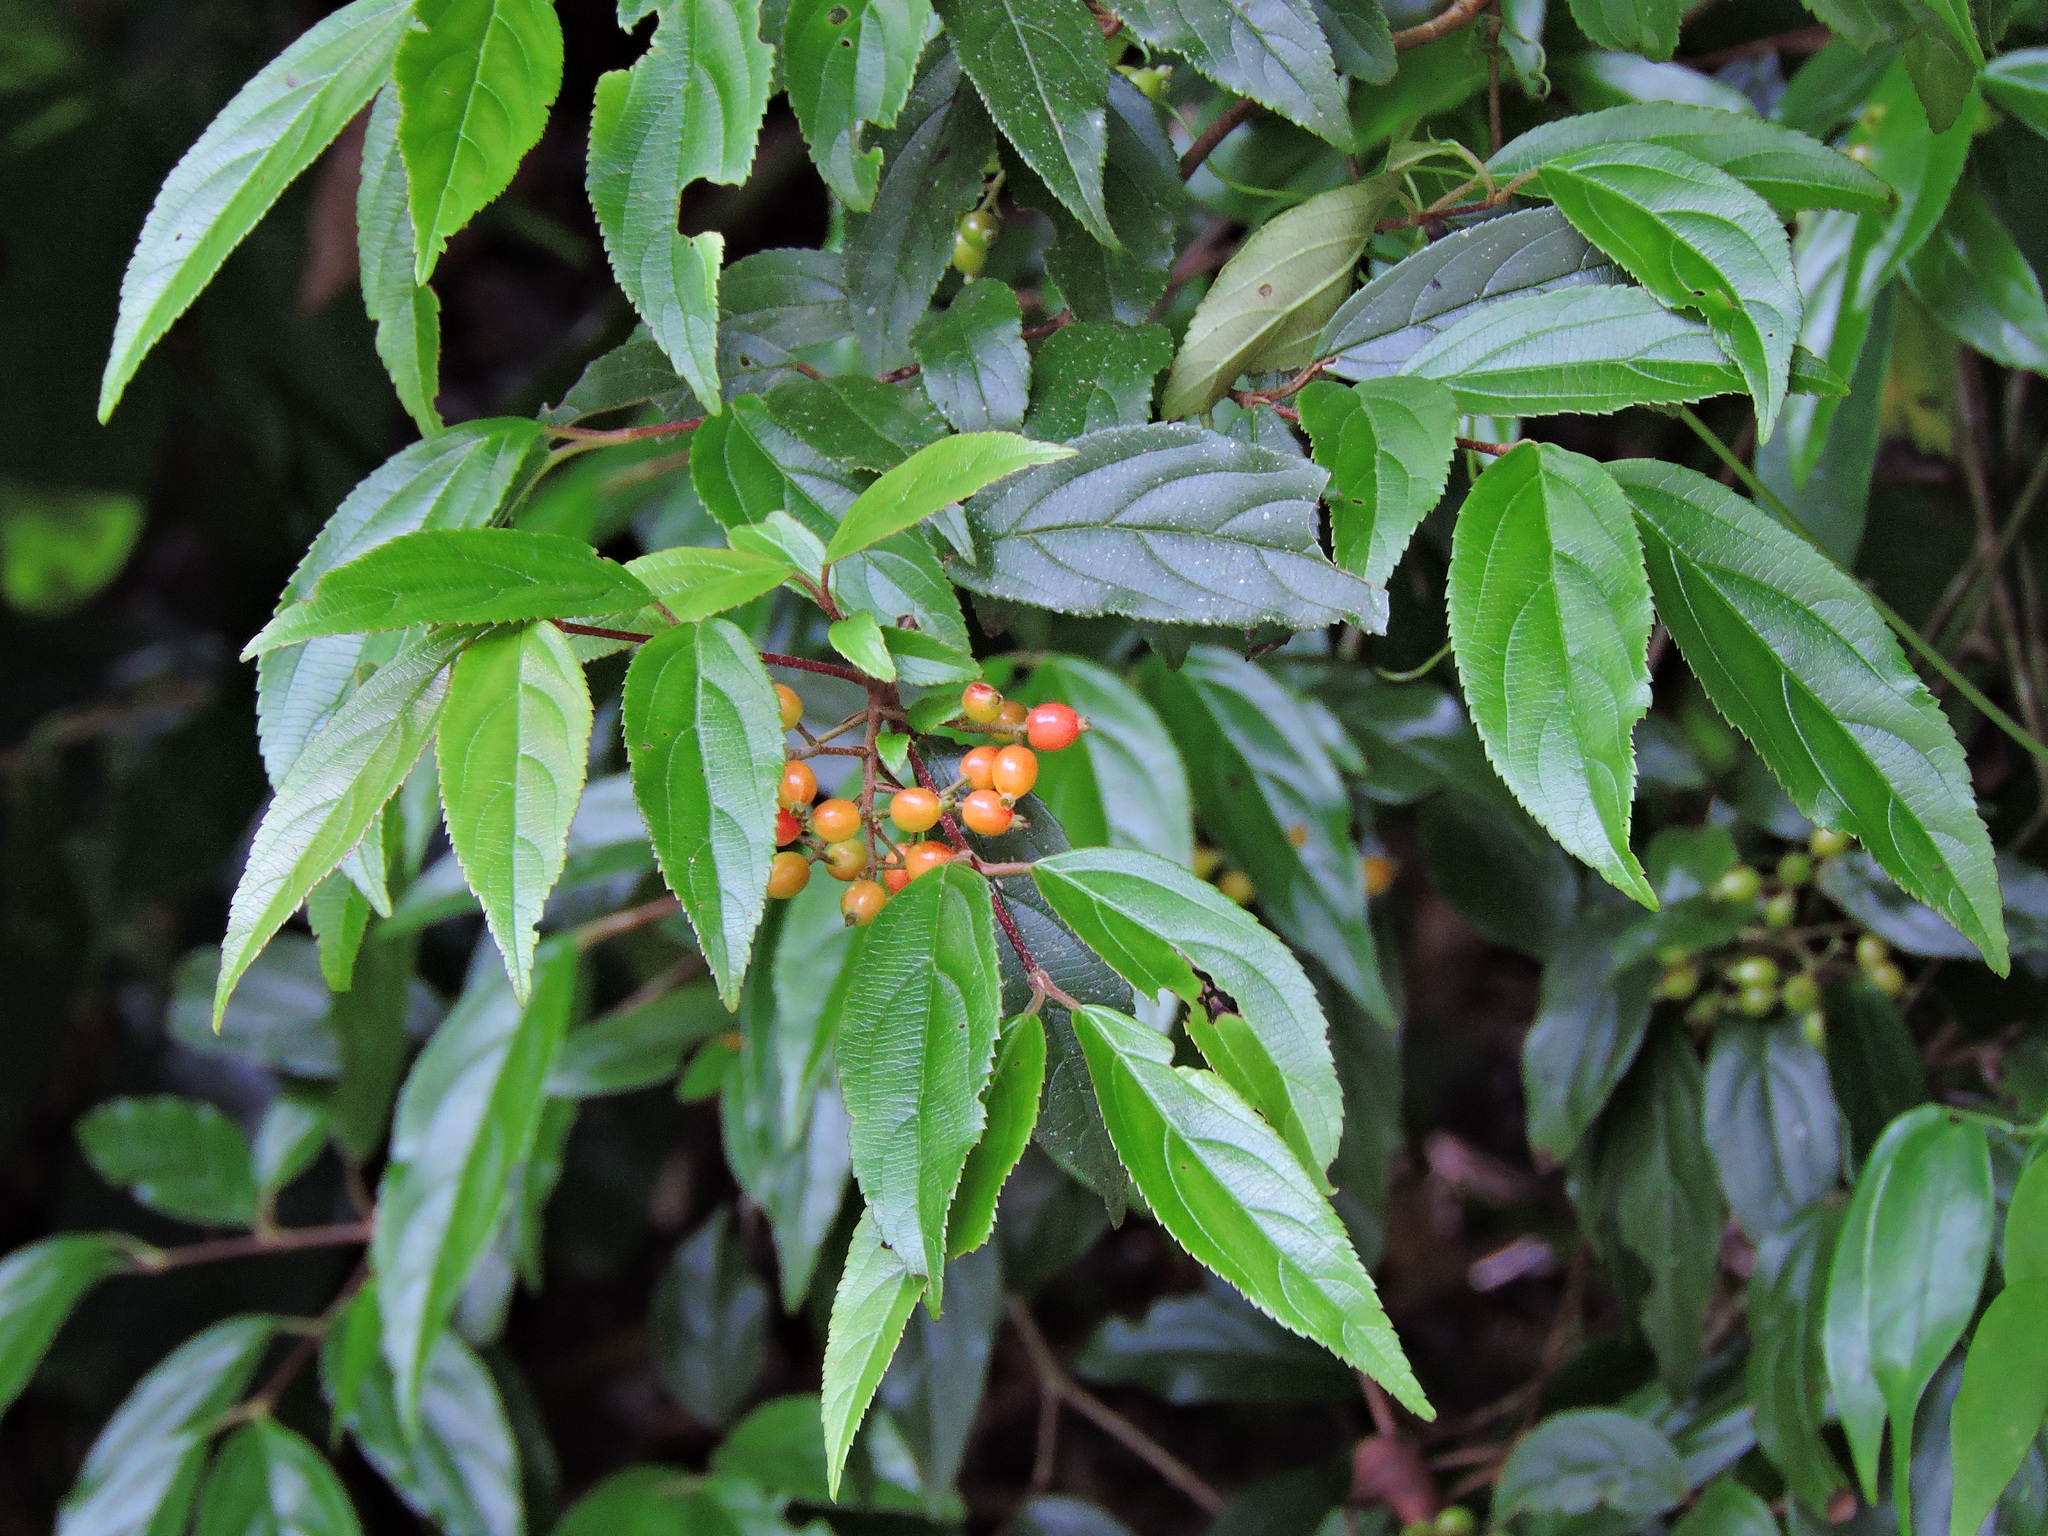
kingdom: Plantae
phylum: Tracheophyta
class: Magnoliopsida
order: Dipsacales
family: Viburnaceae
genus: Viburnum
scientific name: Viburnum taitoense
